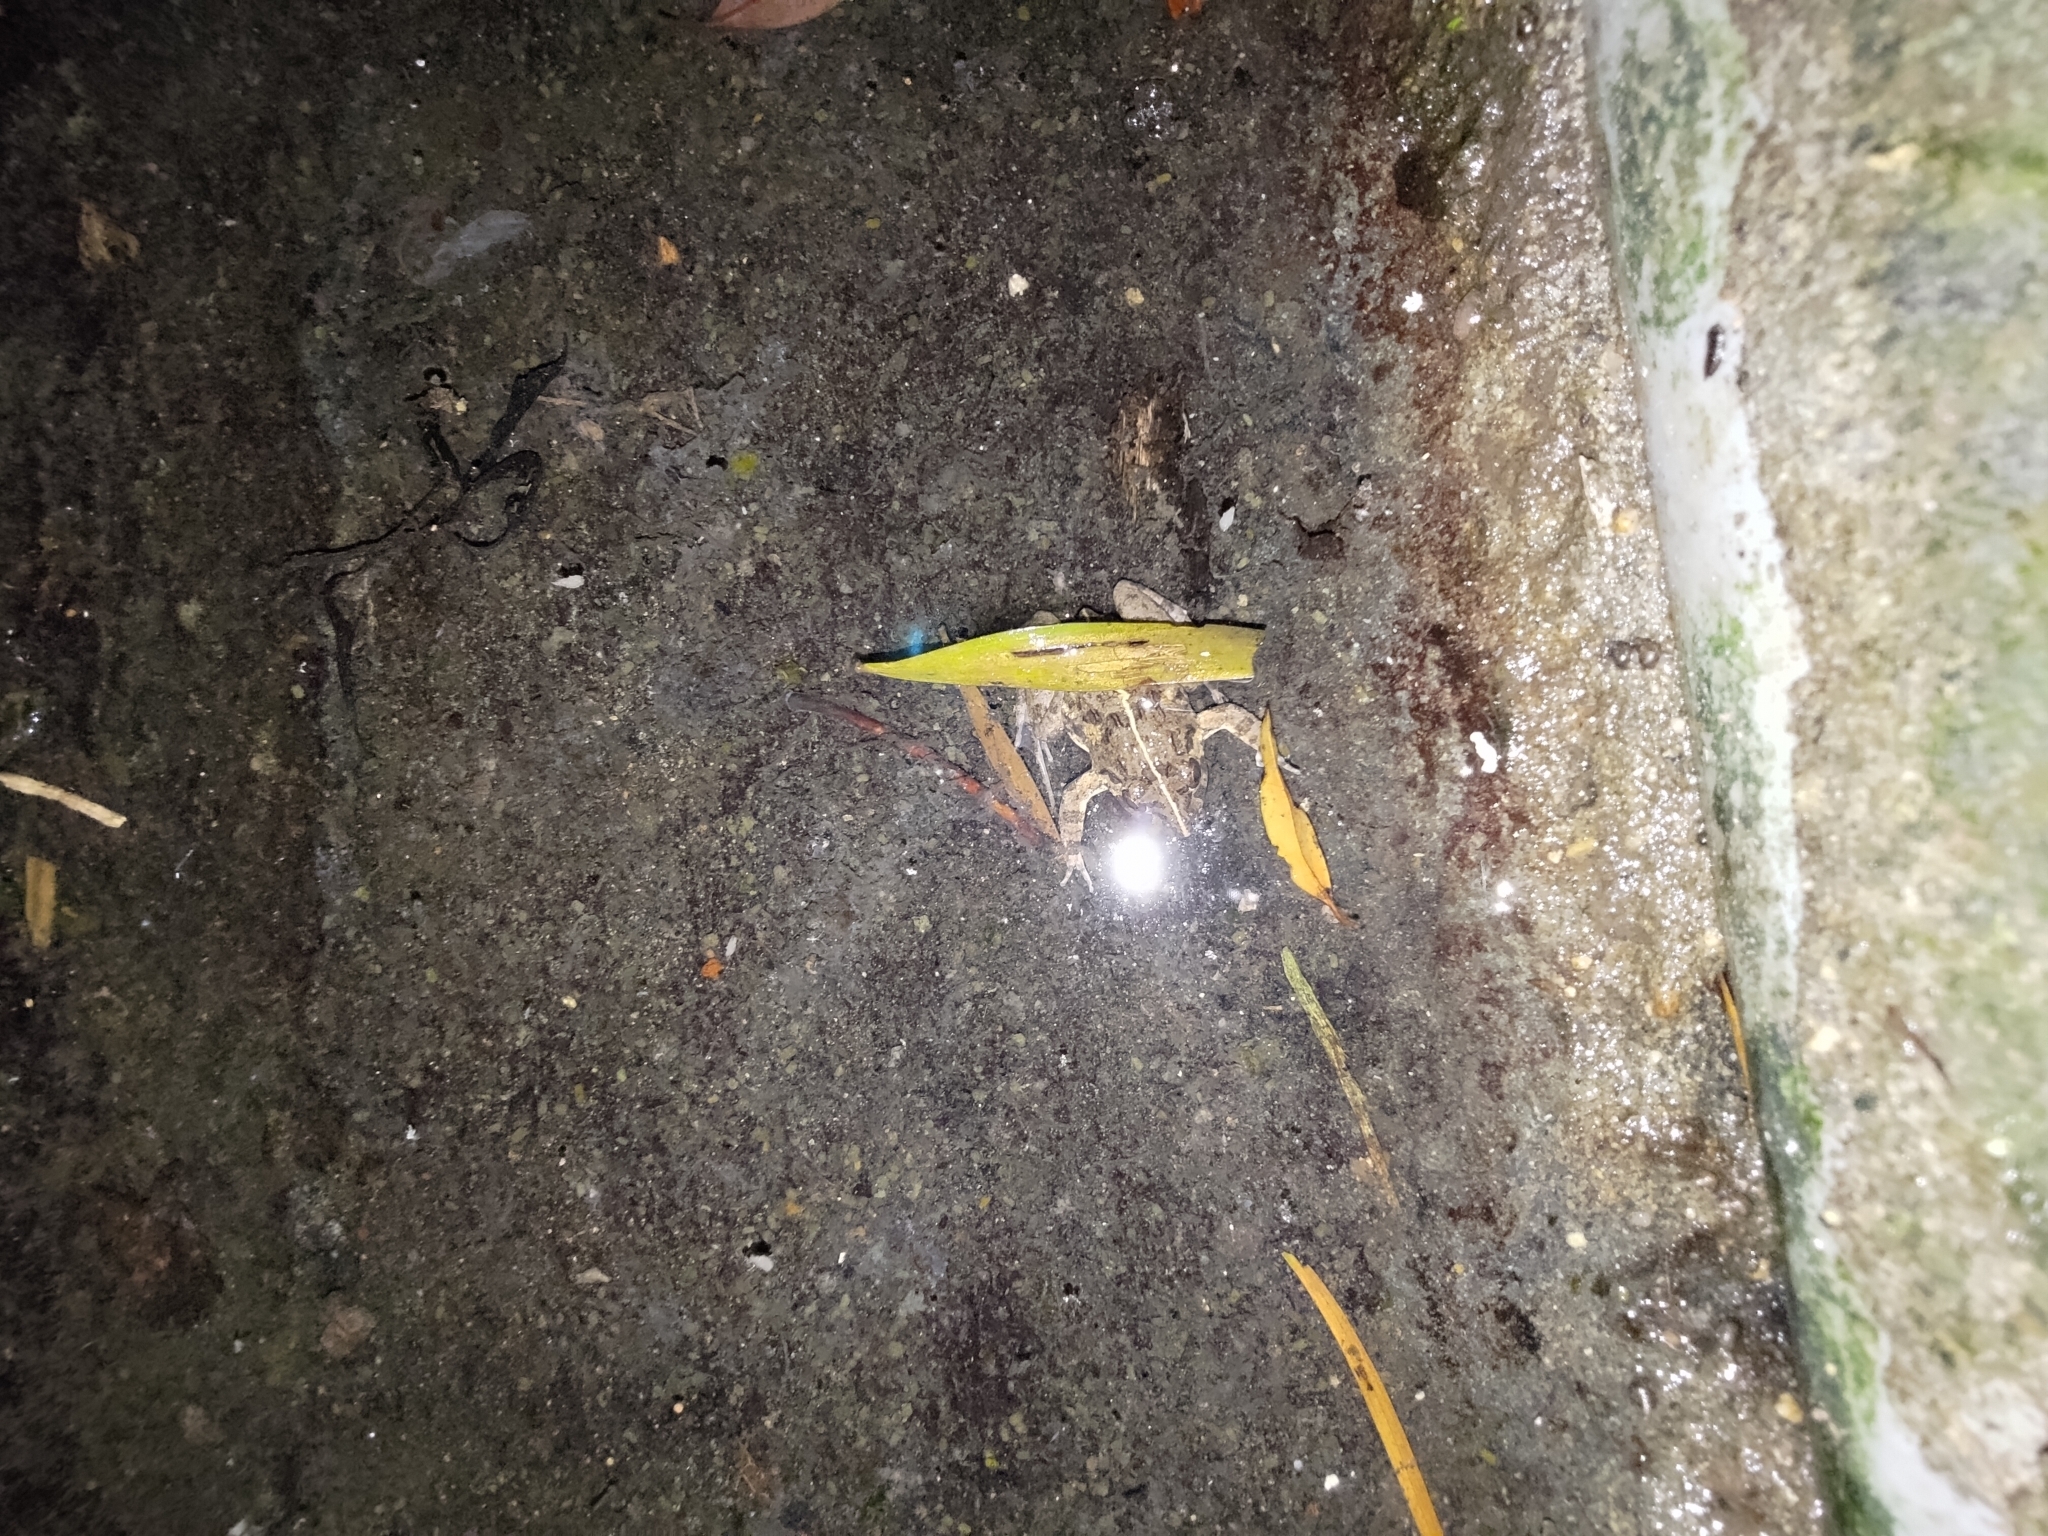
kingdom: Animalia
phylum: Chordata
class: Amphibia
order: Anura
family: Dicroglossidae
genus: Fejervarya
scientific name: Fejervarya limnocharis
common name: Asian grass frog/common pond frog/field frog/grass frog/indian rice frog
